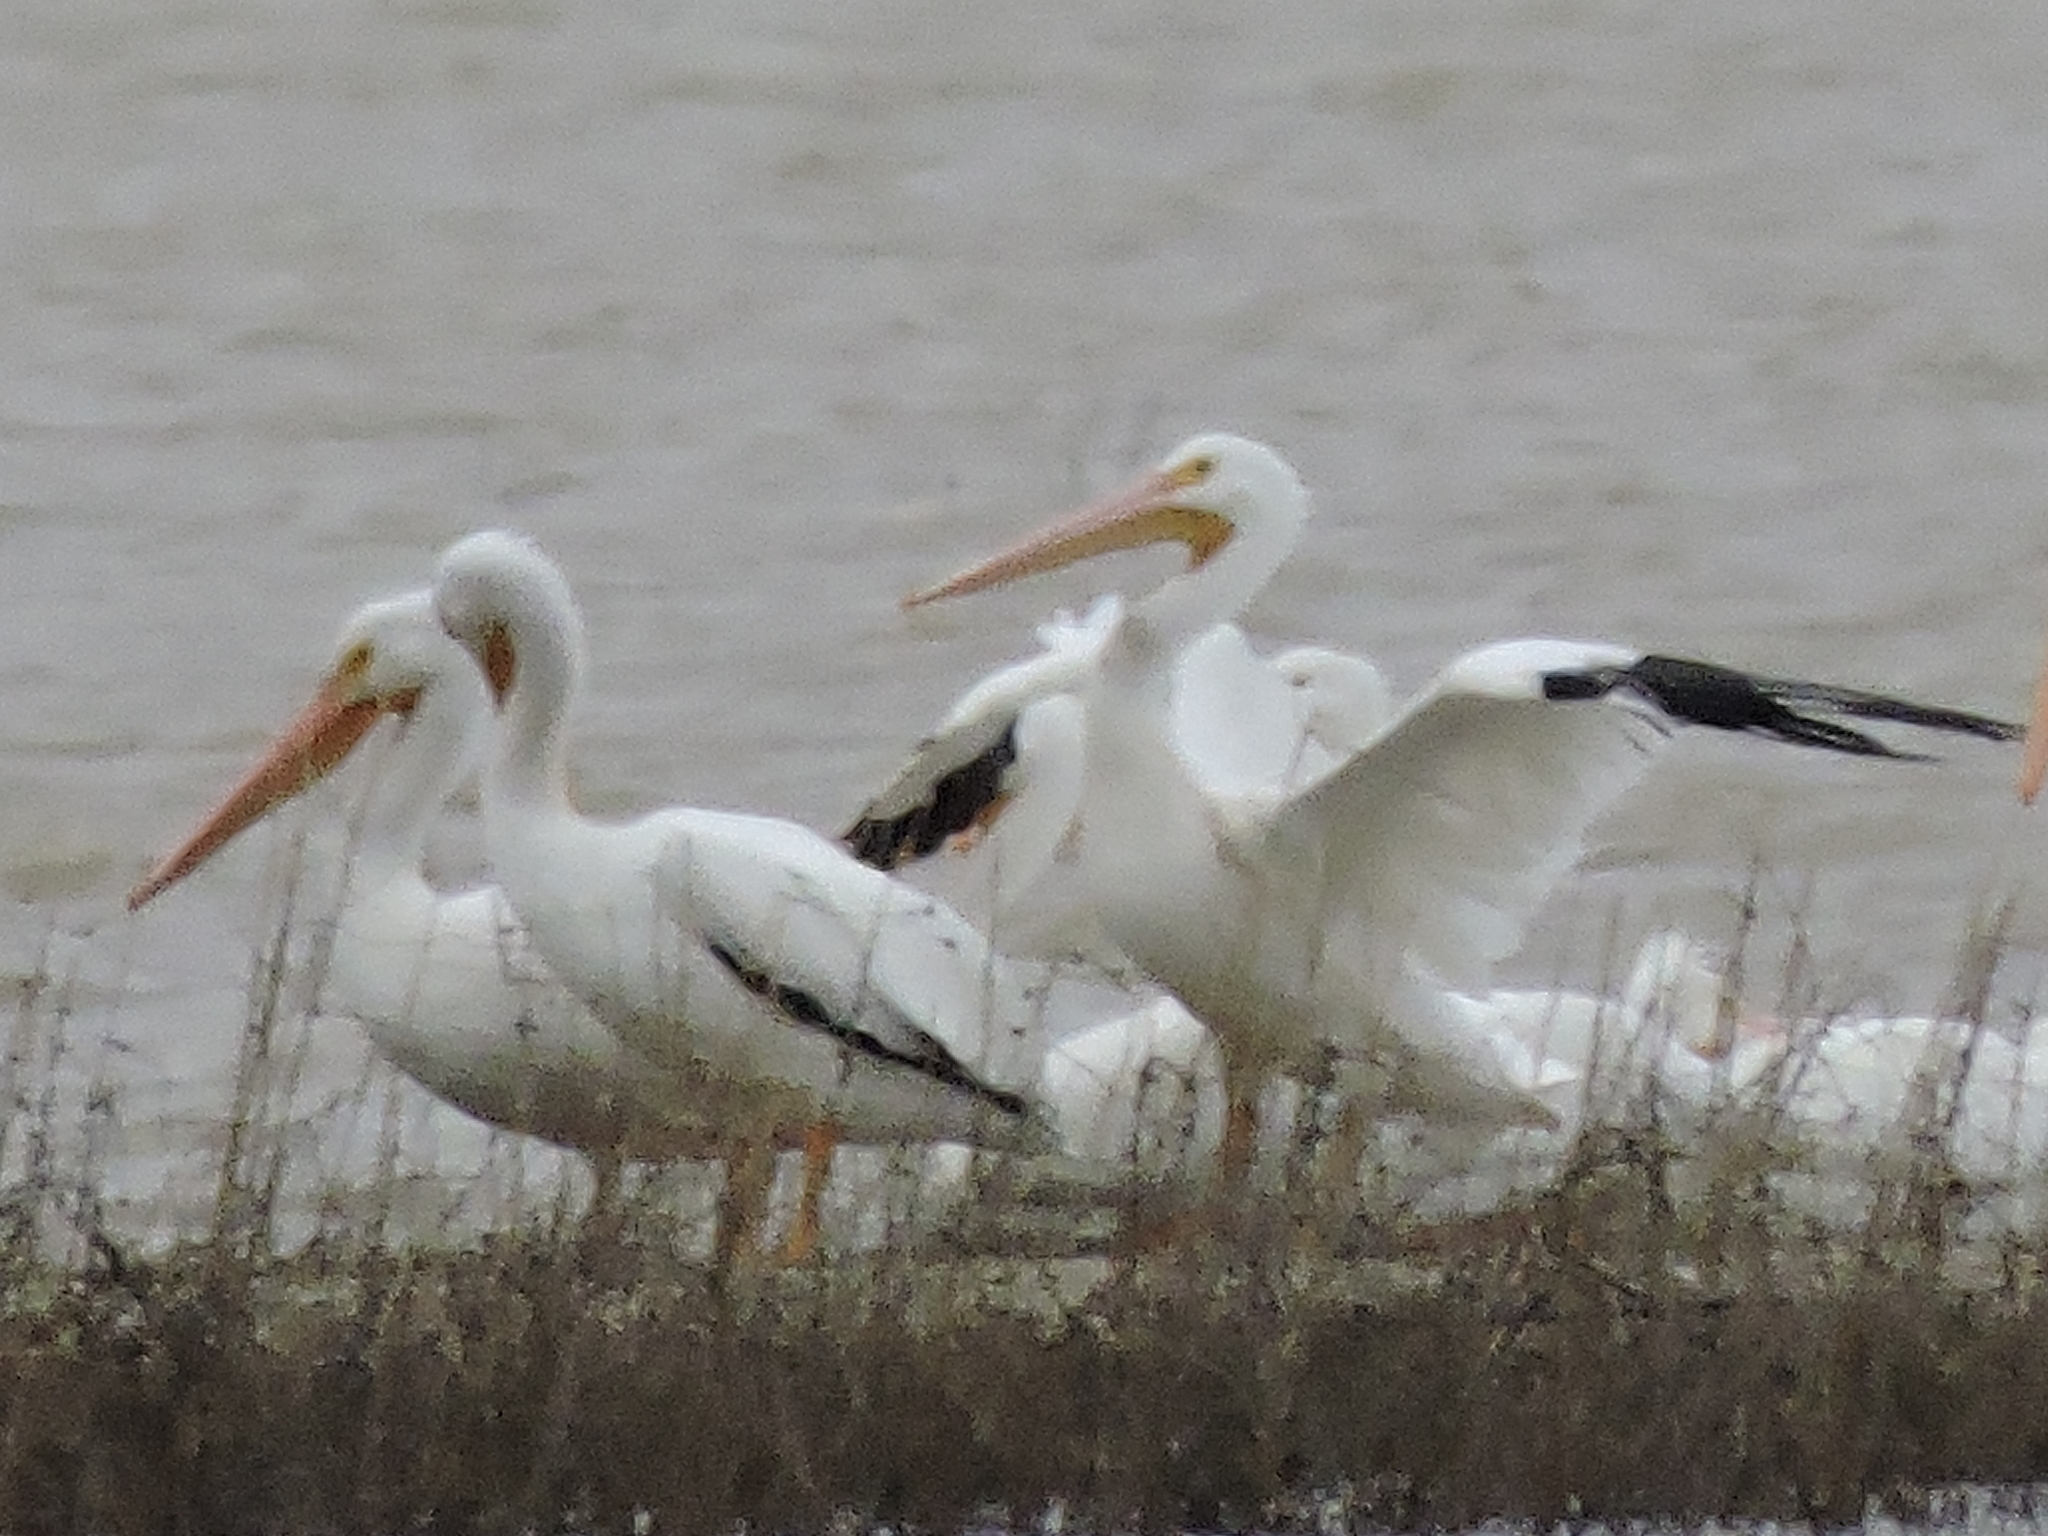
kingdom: Animalia
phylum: Chordata
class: Aves
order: Pelecaniformes
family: Pelecanidae
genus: Pelecanus
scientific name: Pelecanus erythrorhynchos
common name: American white pelican
